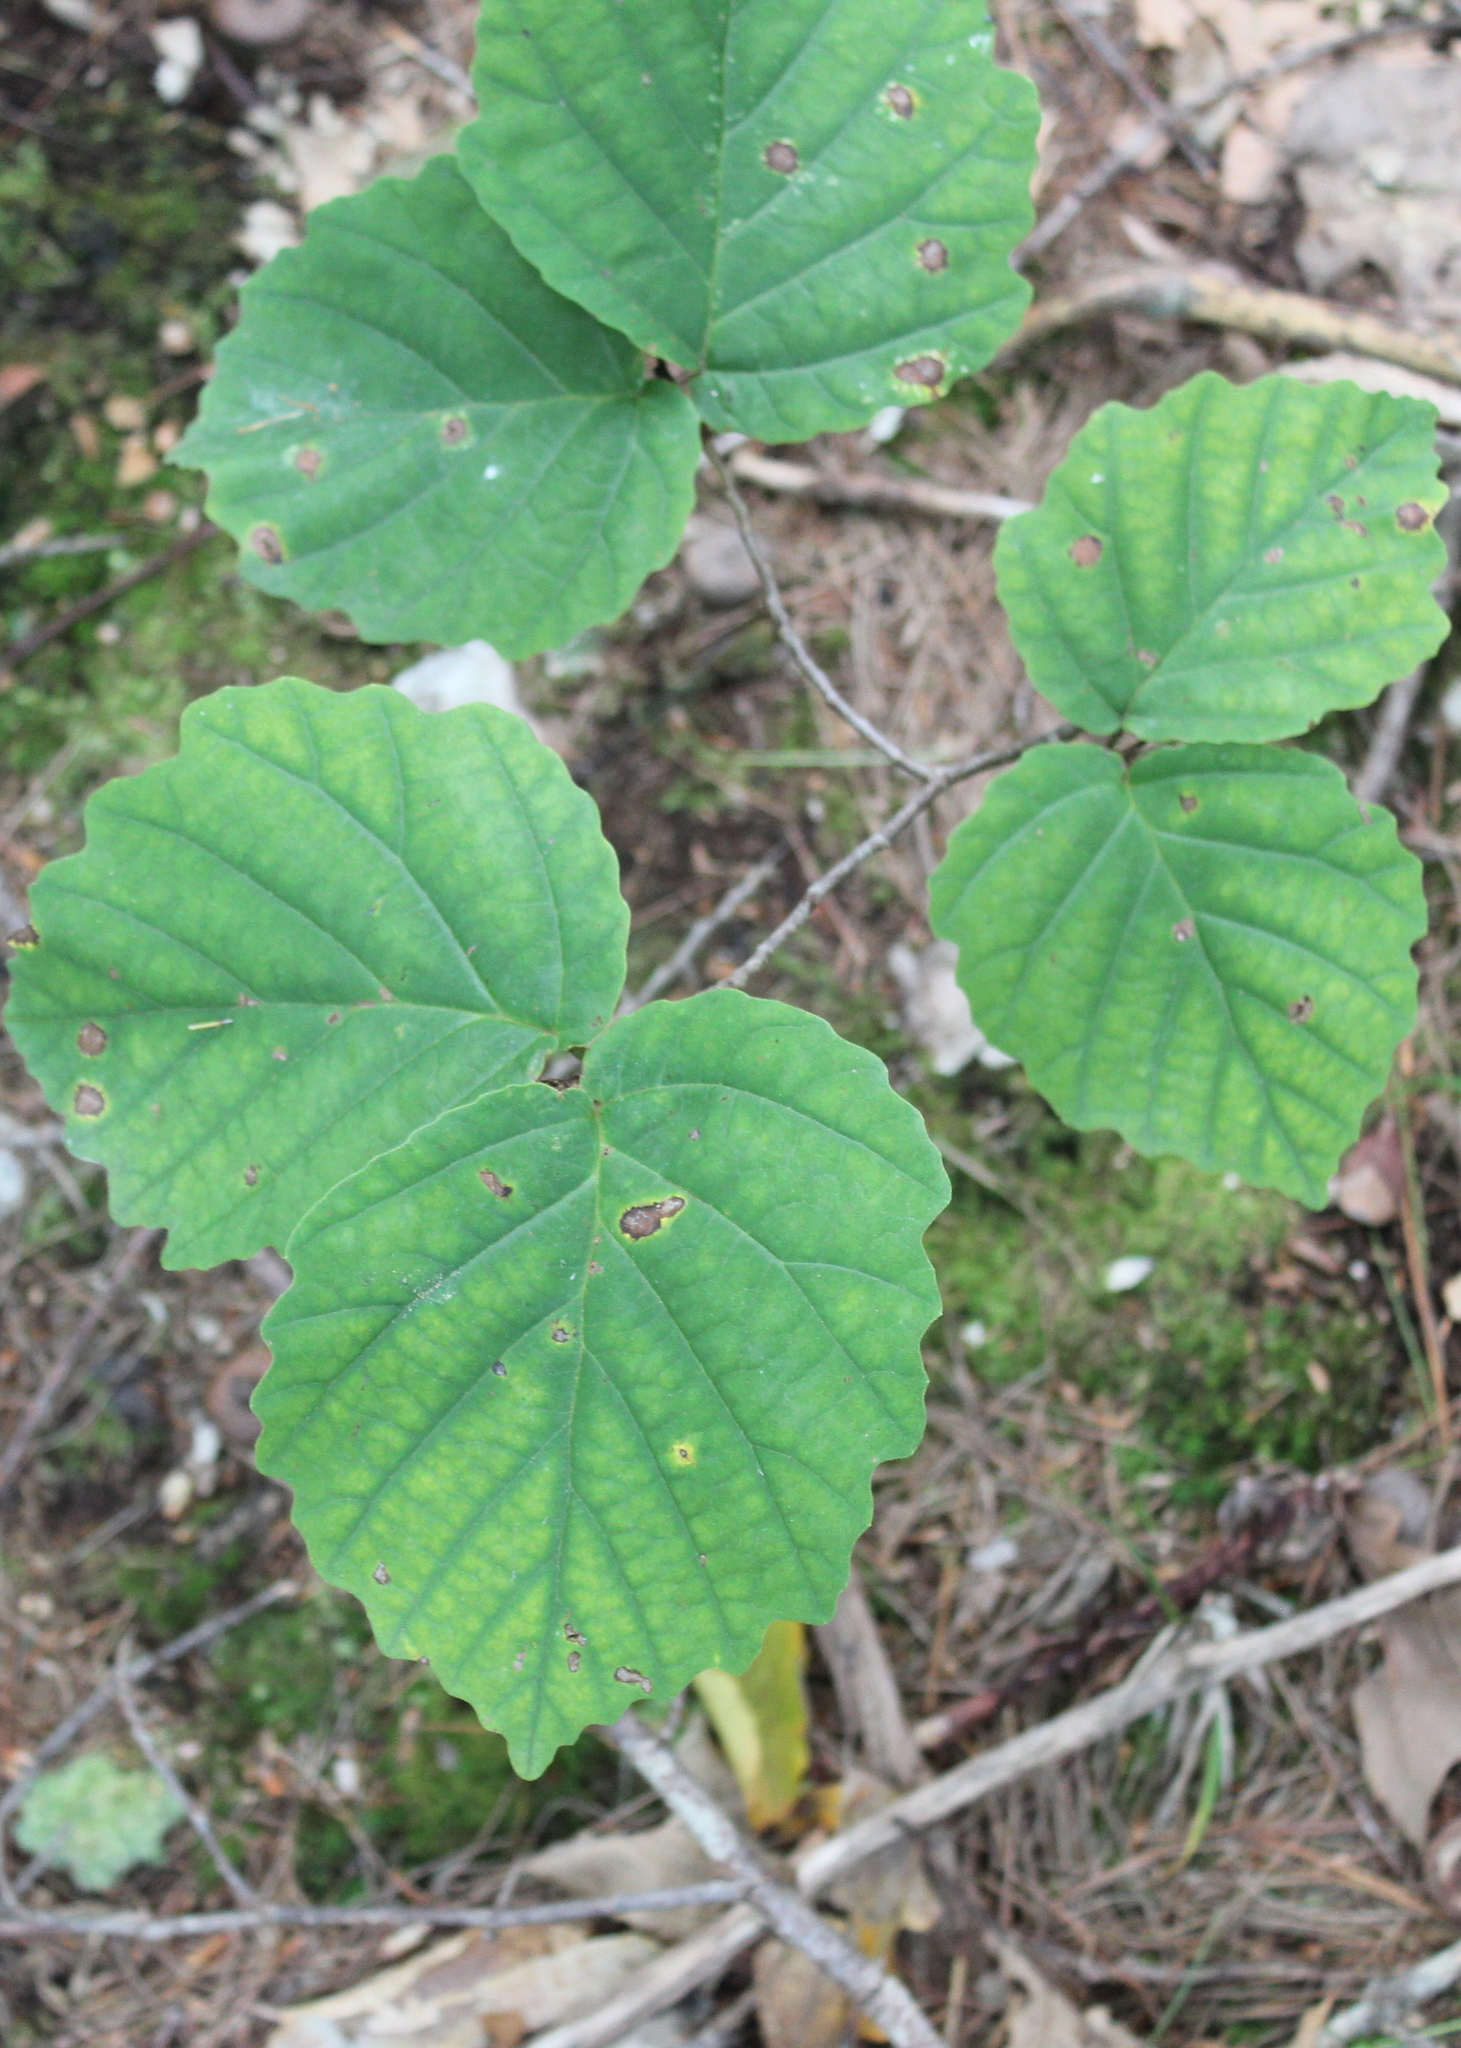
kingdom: Plantae
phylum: Tracheophyta
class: Magnoliopsida
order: Saxifragales
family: Hamamelidaceae
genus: Hamamelis
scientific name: Hamamelis virginiana
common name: Witch-hazel
